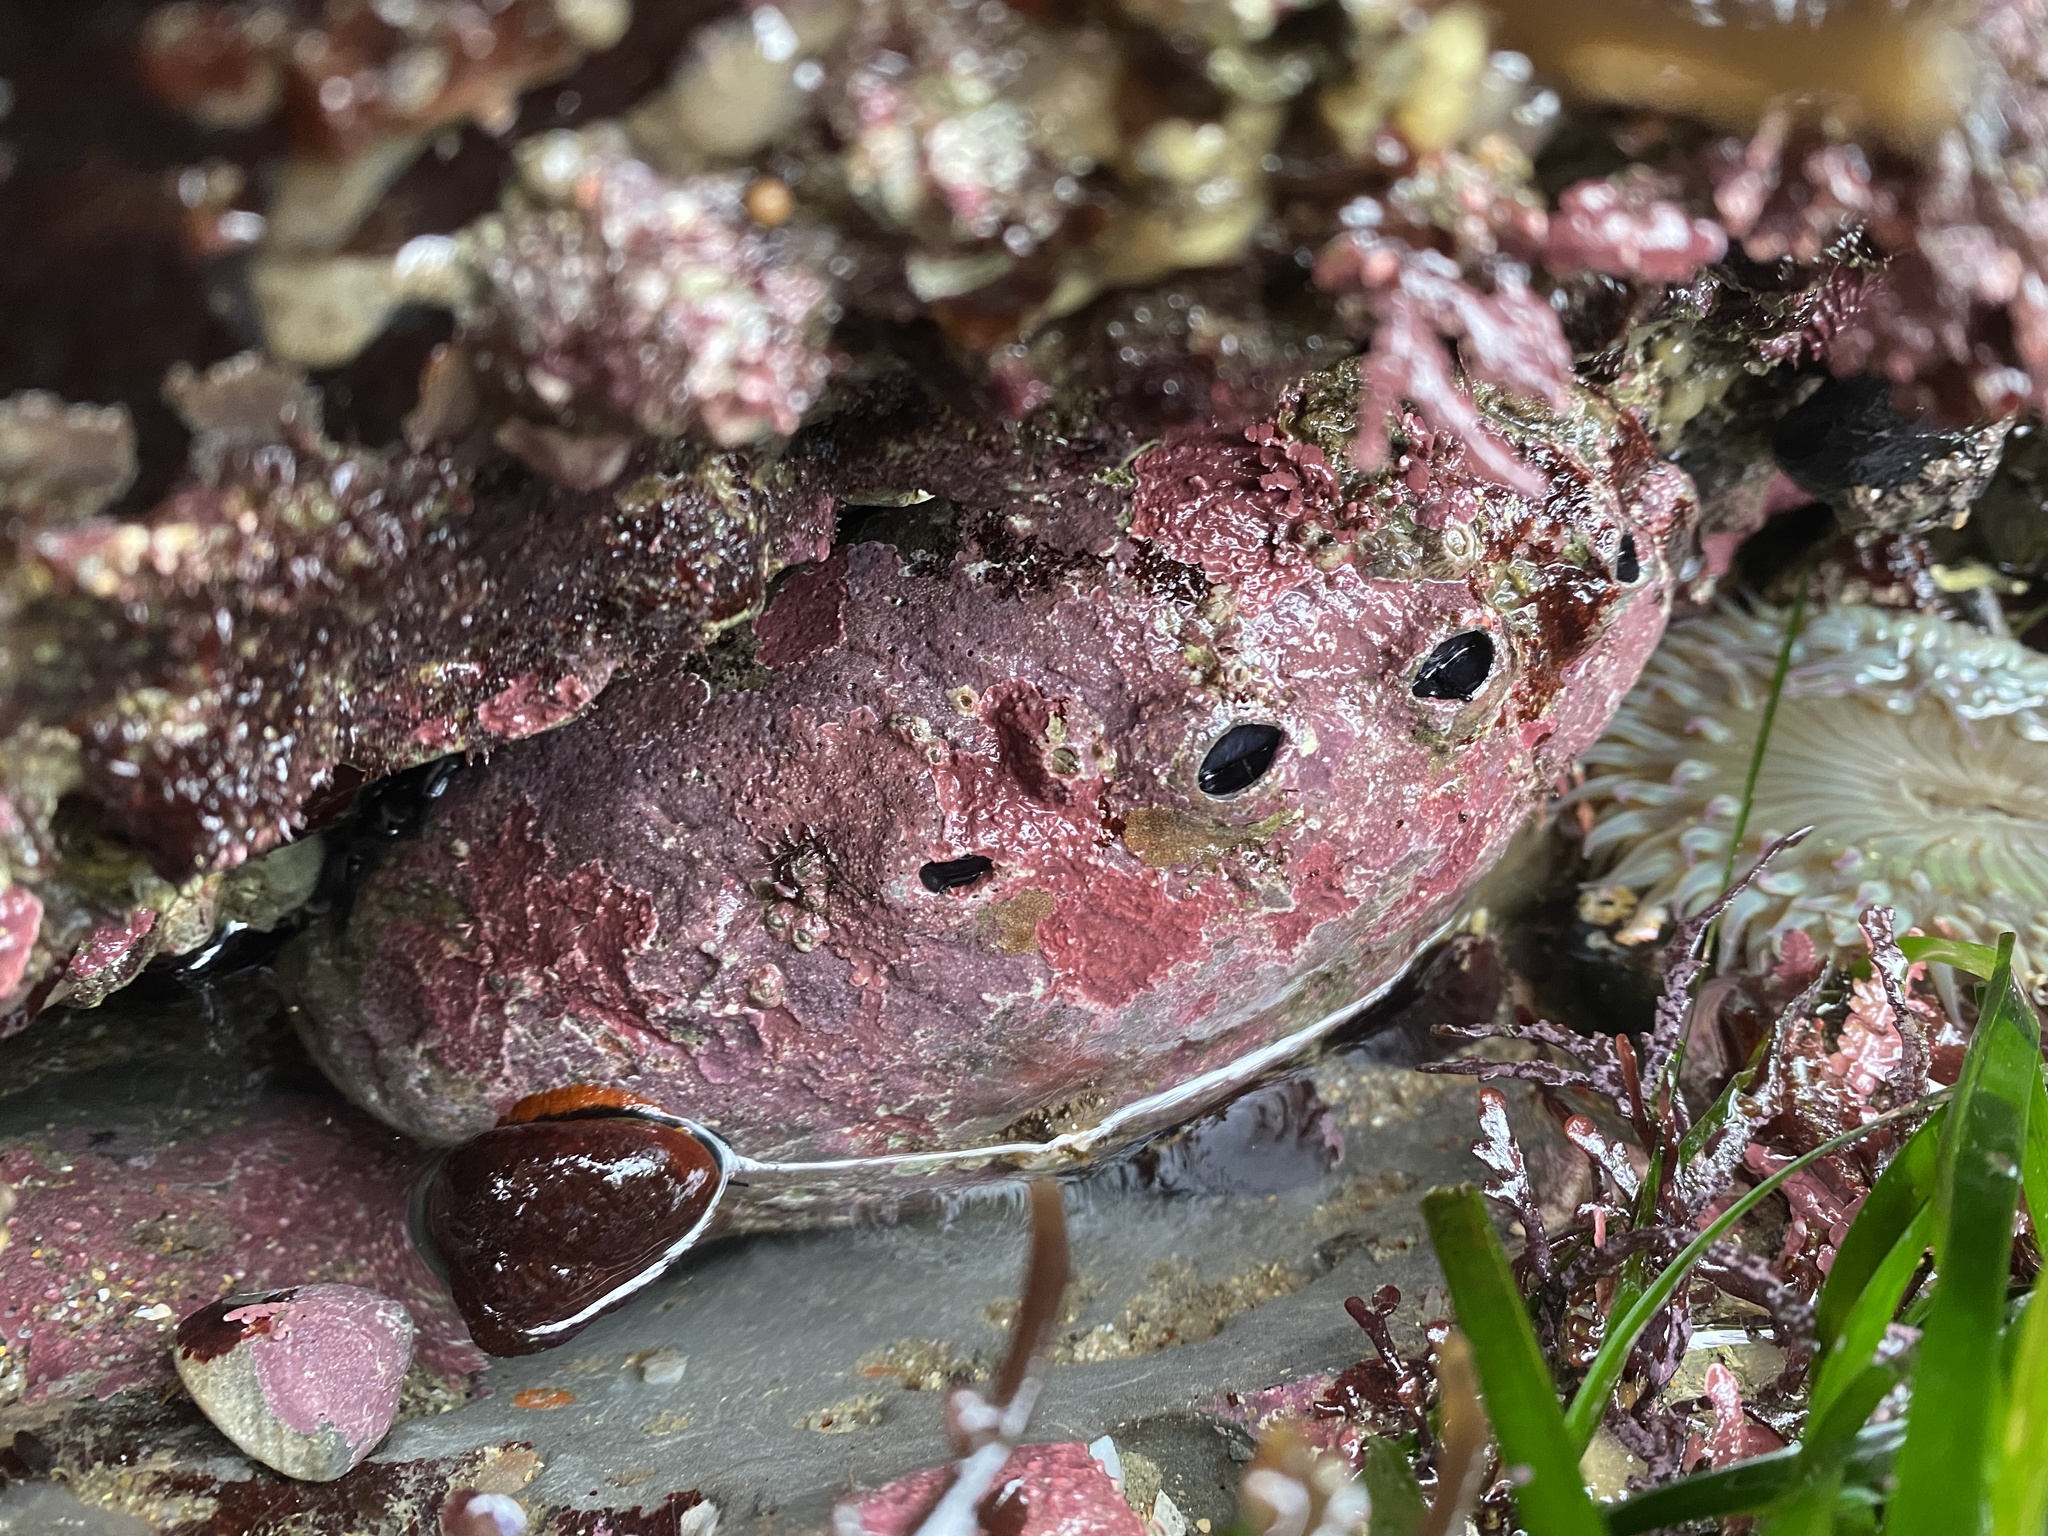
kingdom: Animalia
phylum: Mollusca
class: Gastropoda
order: Lepetellida
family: Haliotidae
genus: Haliotis
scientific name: Haliotis rufescens
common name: Red abalone
